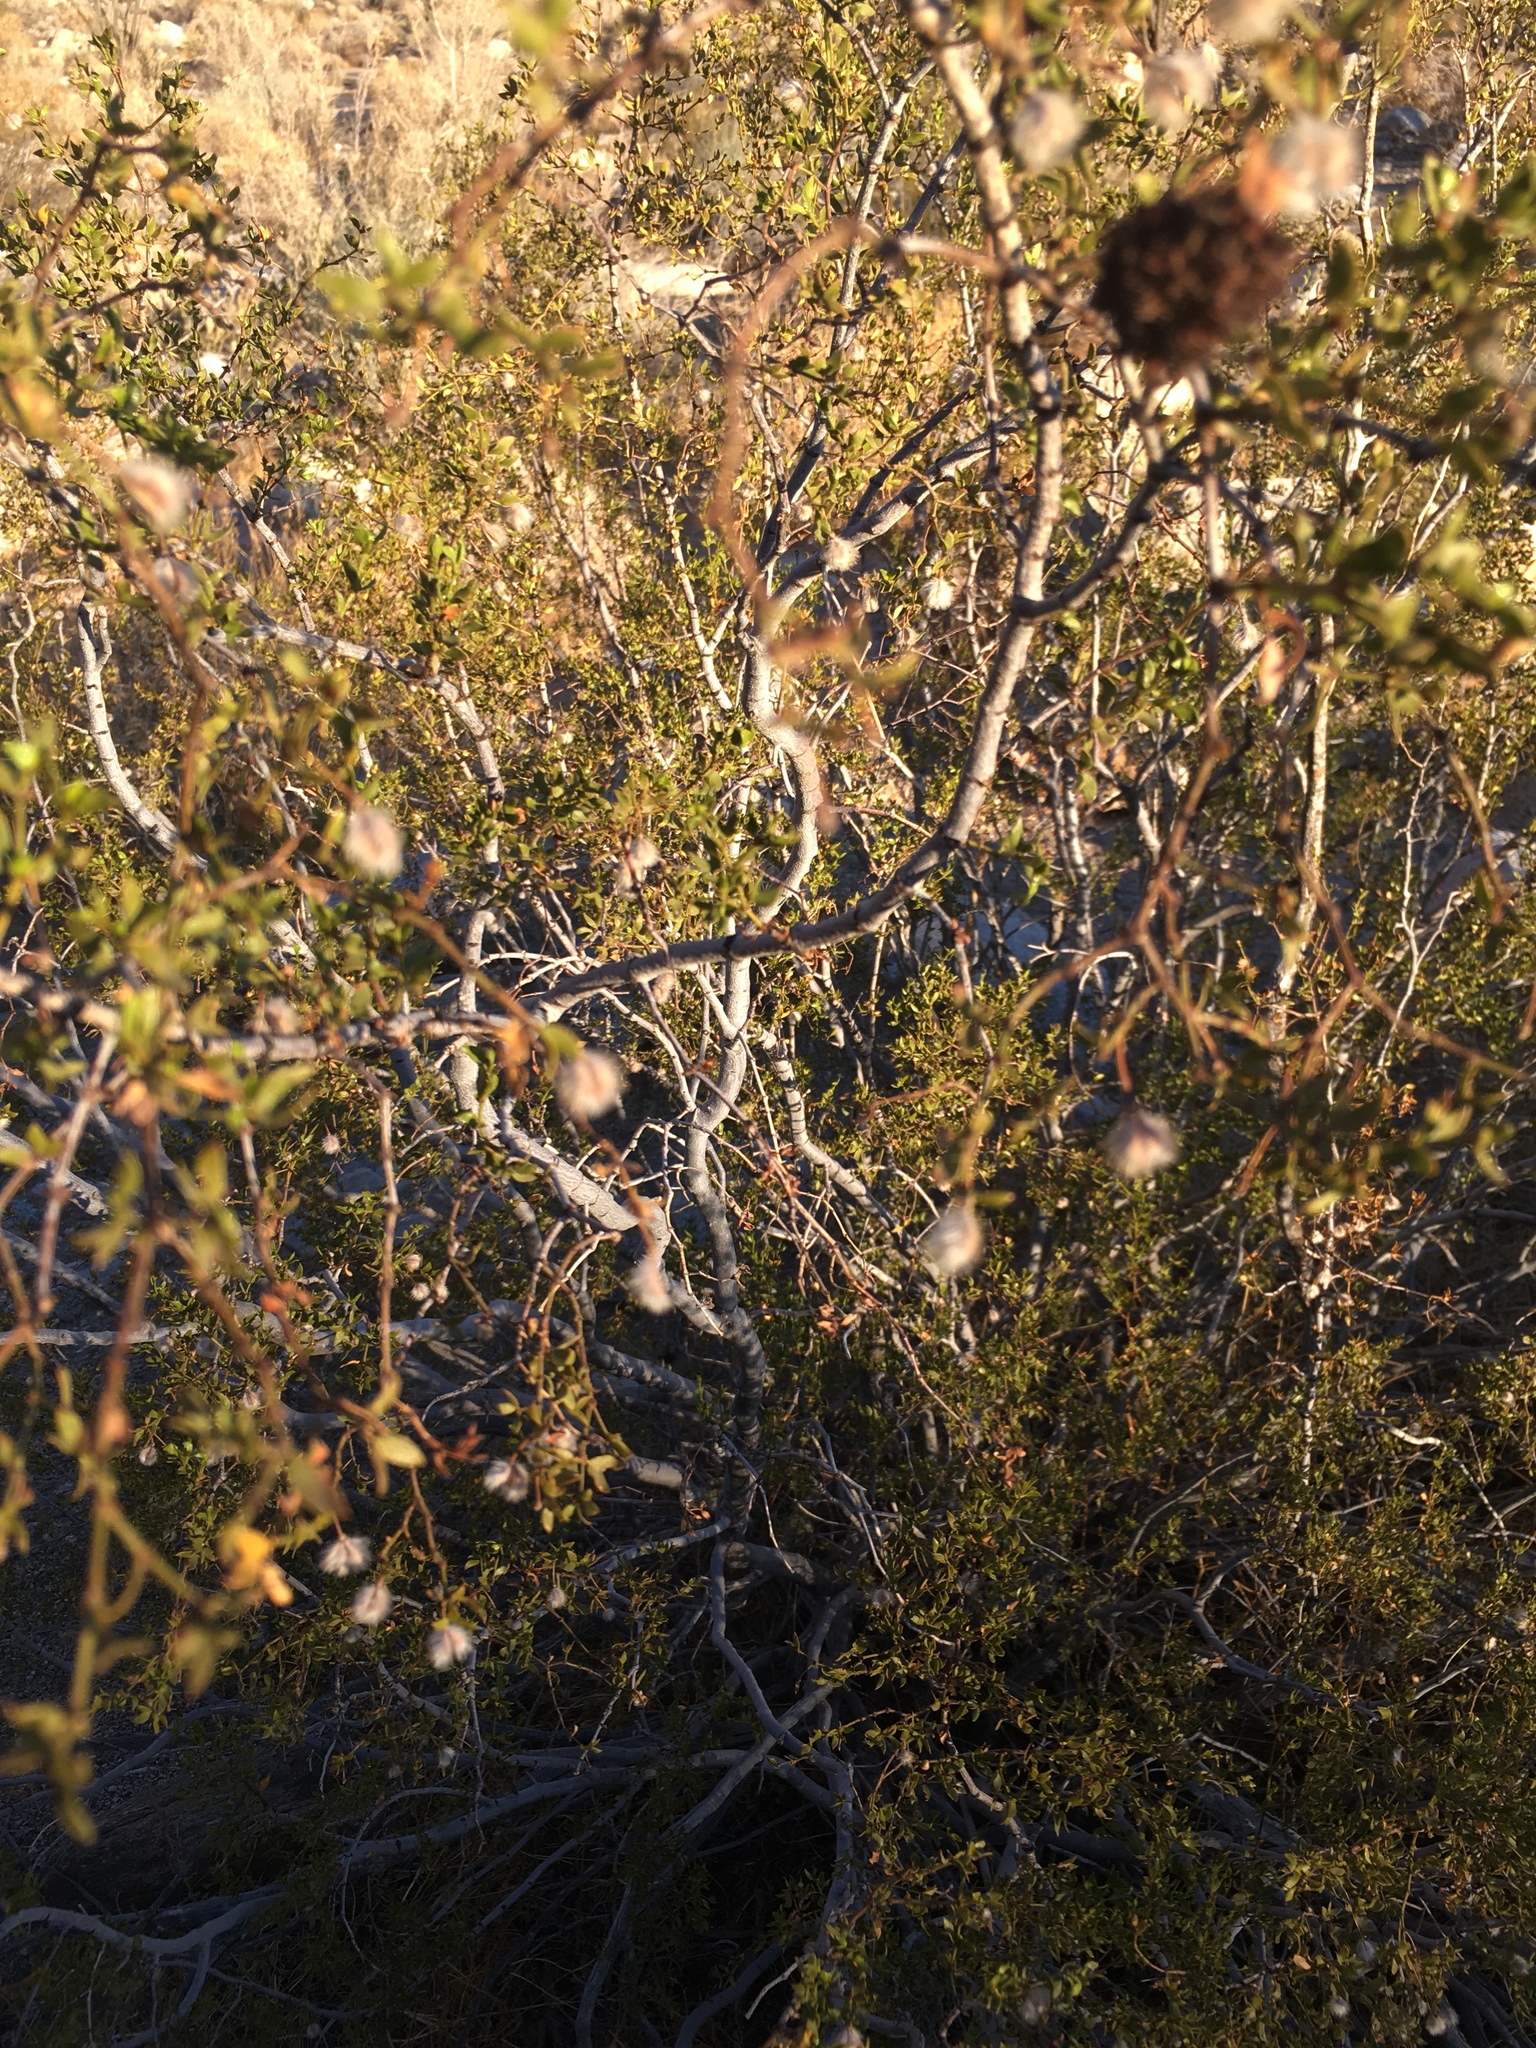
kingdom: Animalia
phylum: Arthropoda
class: Insecta
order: Diptera
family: Cecidomyiidae
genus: Asphondylia
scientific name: Asphondylia auripila
